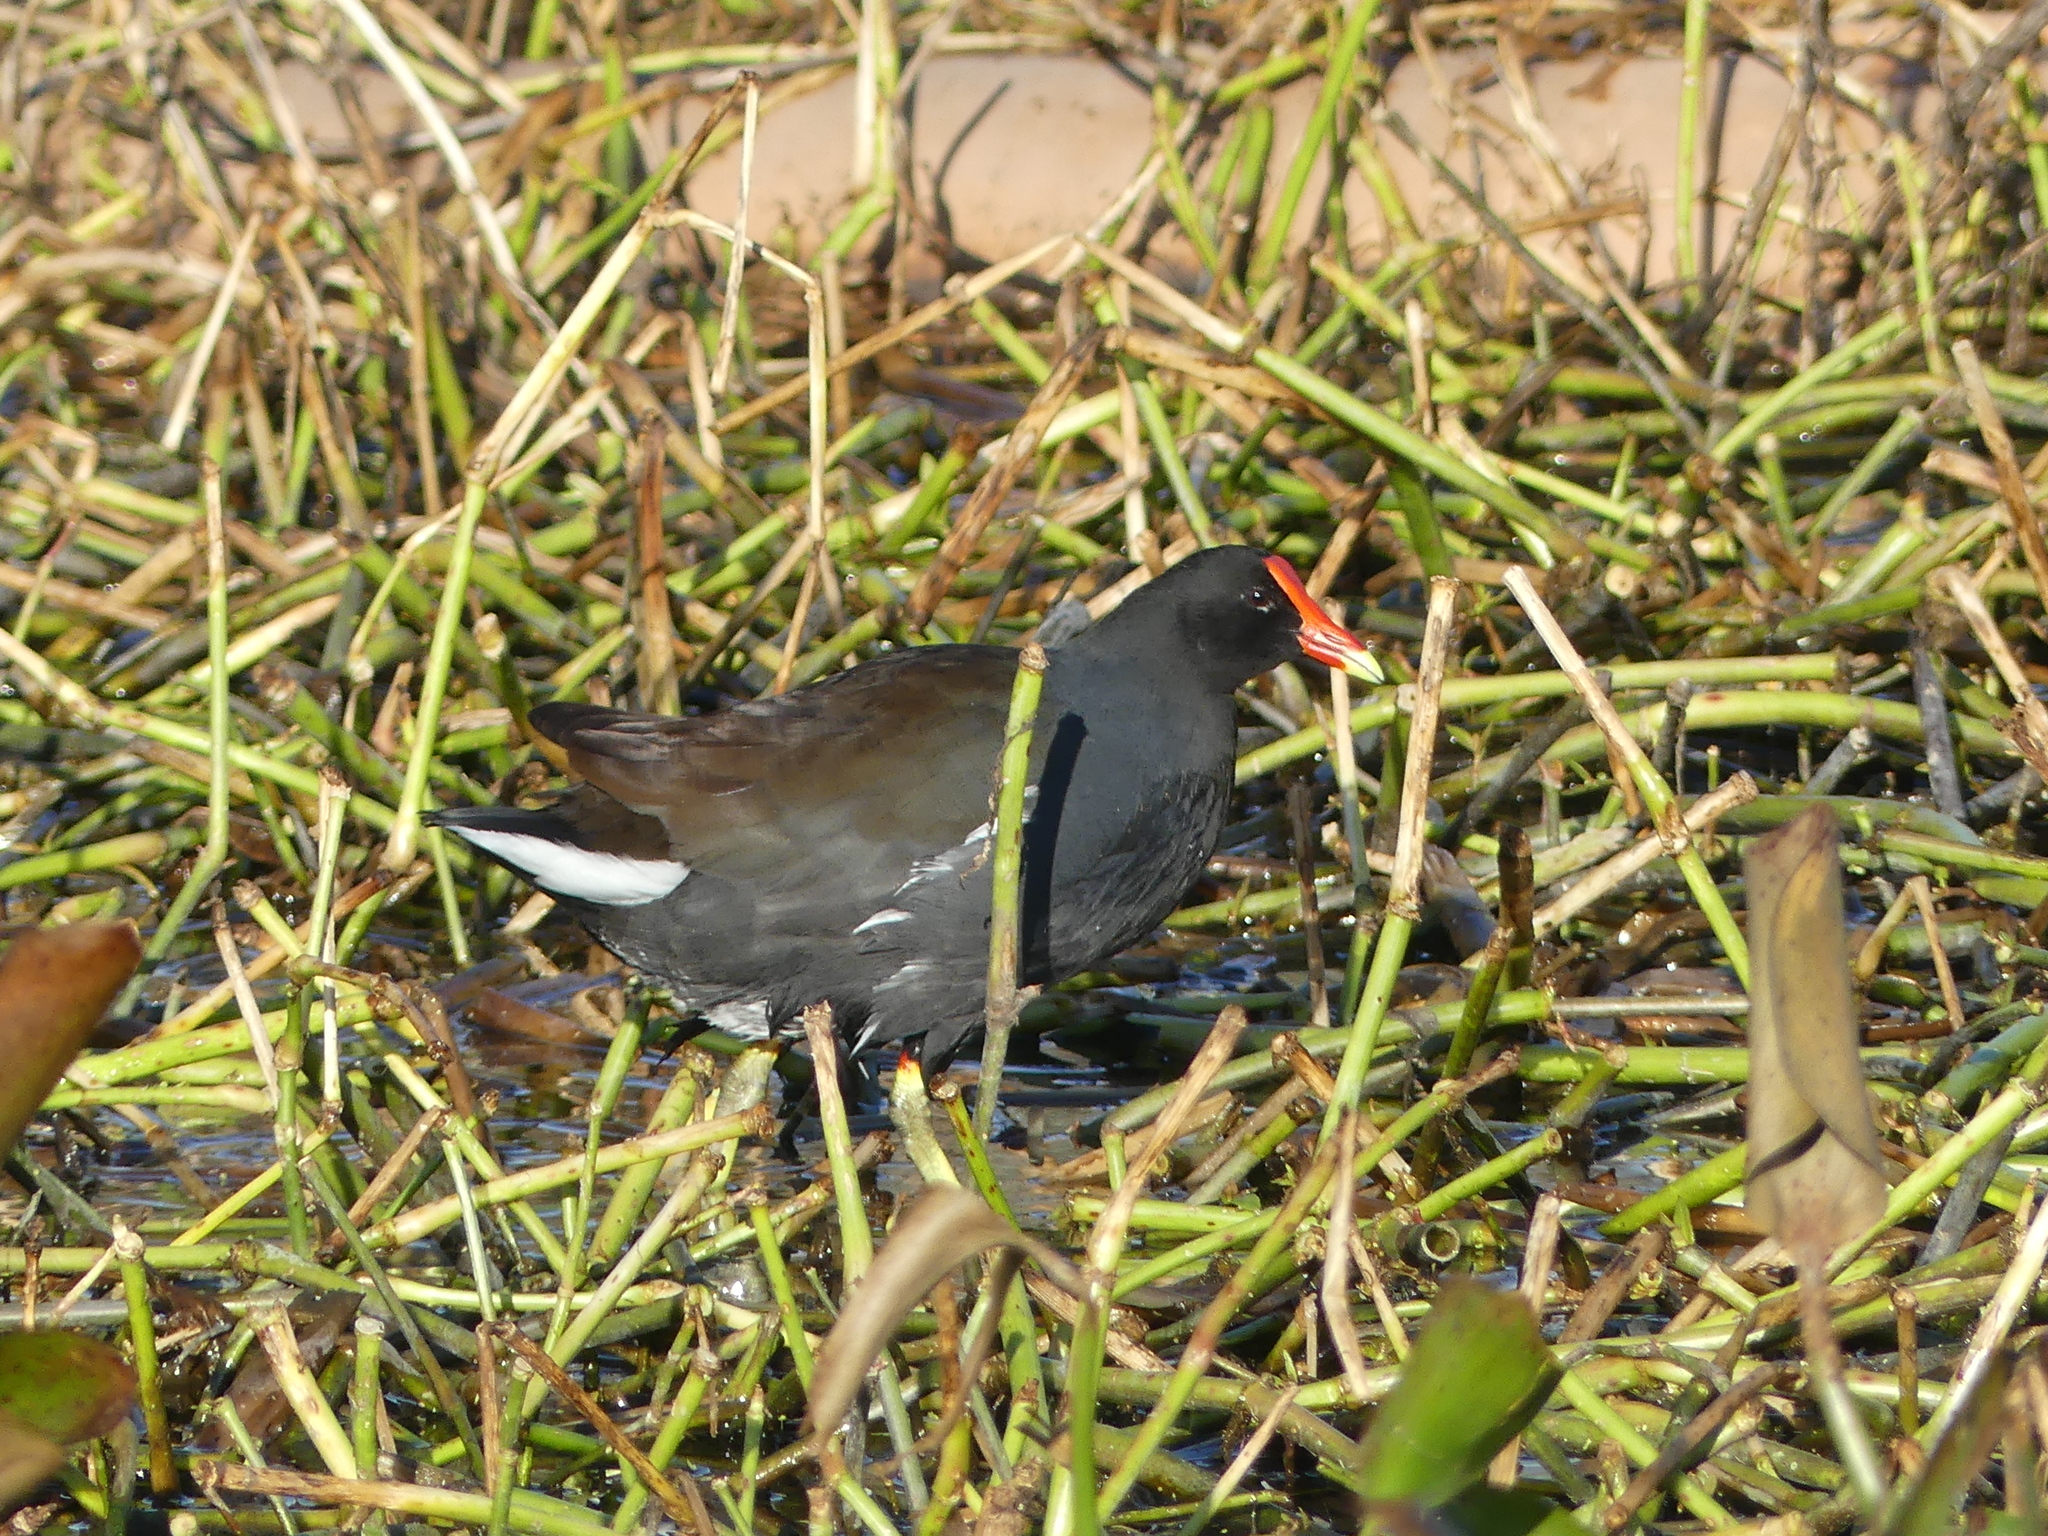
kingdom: Animalia
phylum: Chordata
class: Aves
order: Gruiformes
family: Rallidae
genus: Gallinula
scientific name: Gallinula chloropus
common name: Common moorhen
